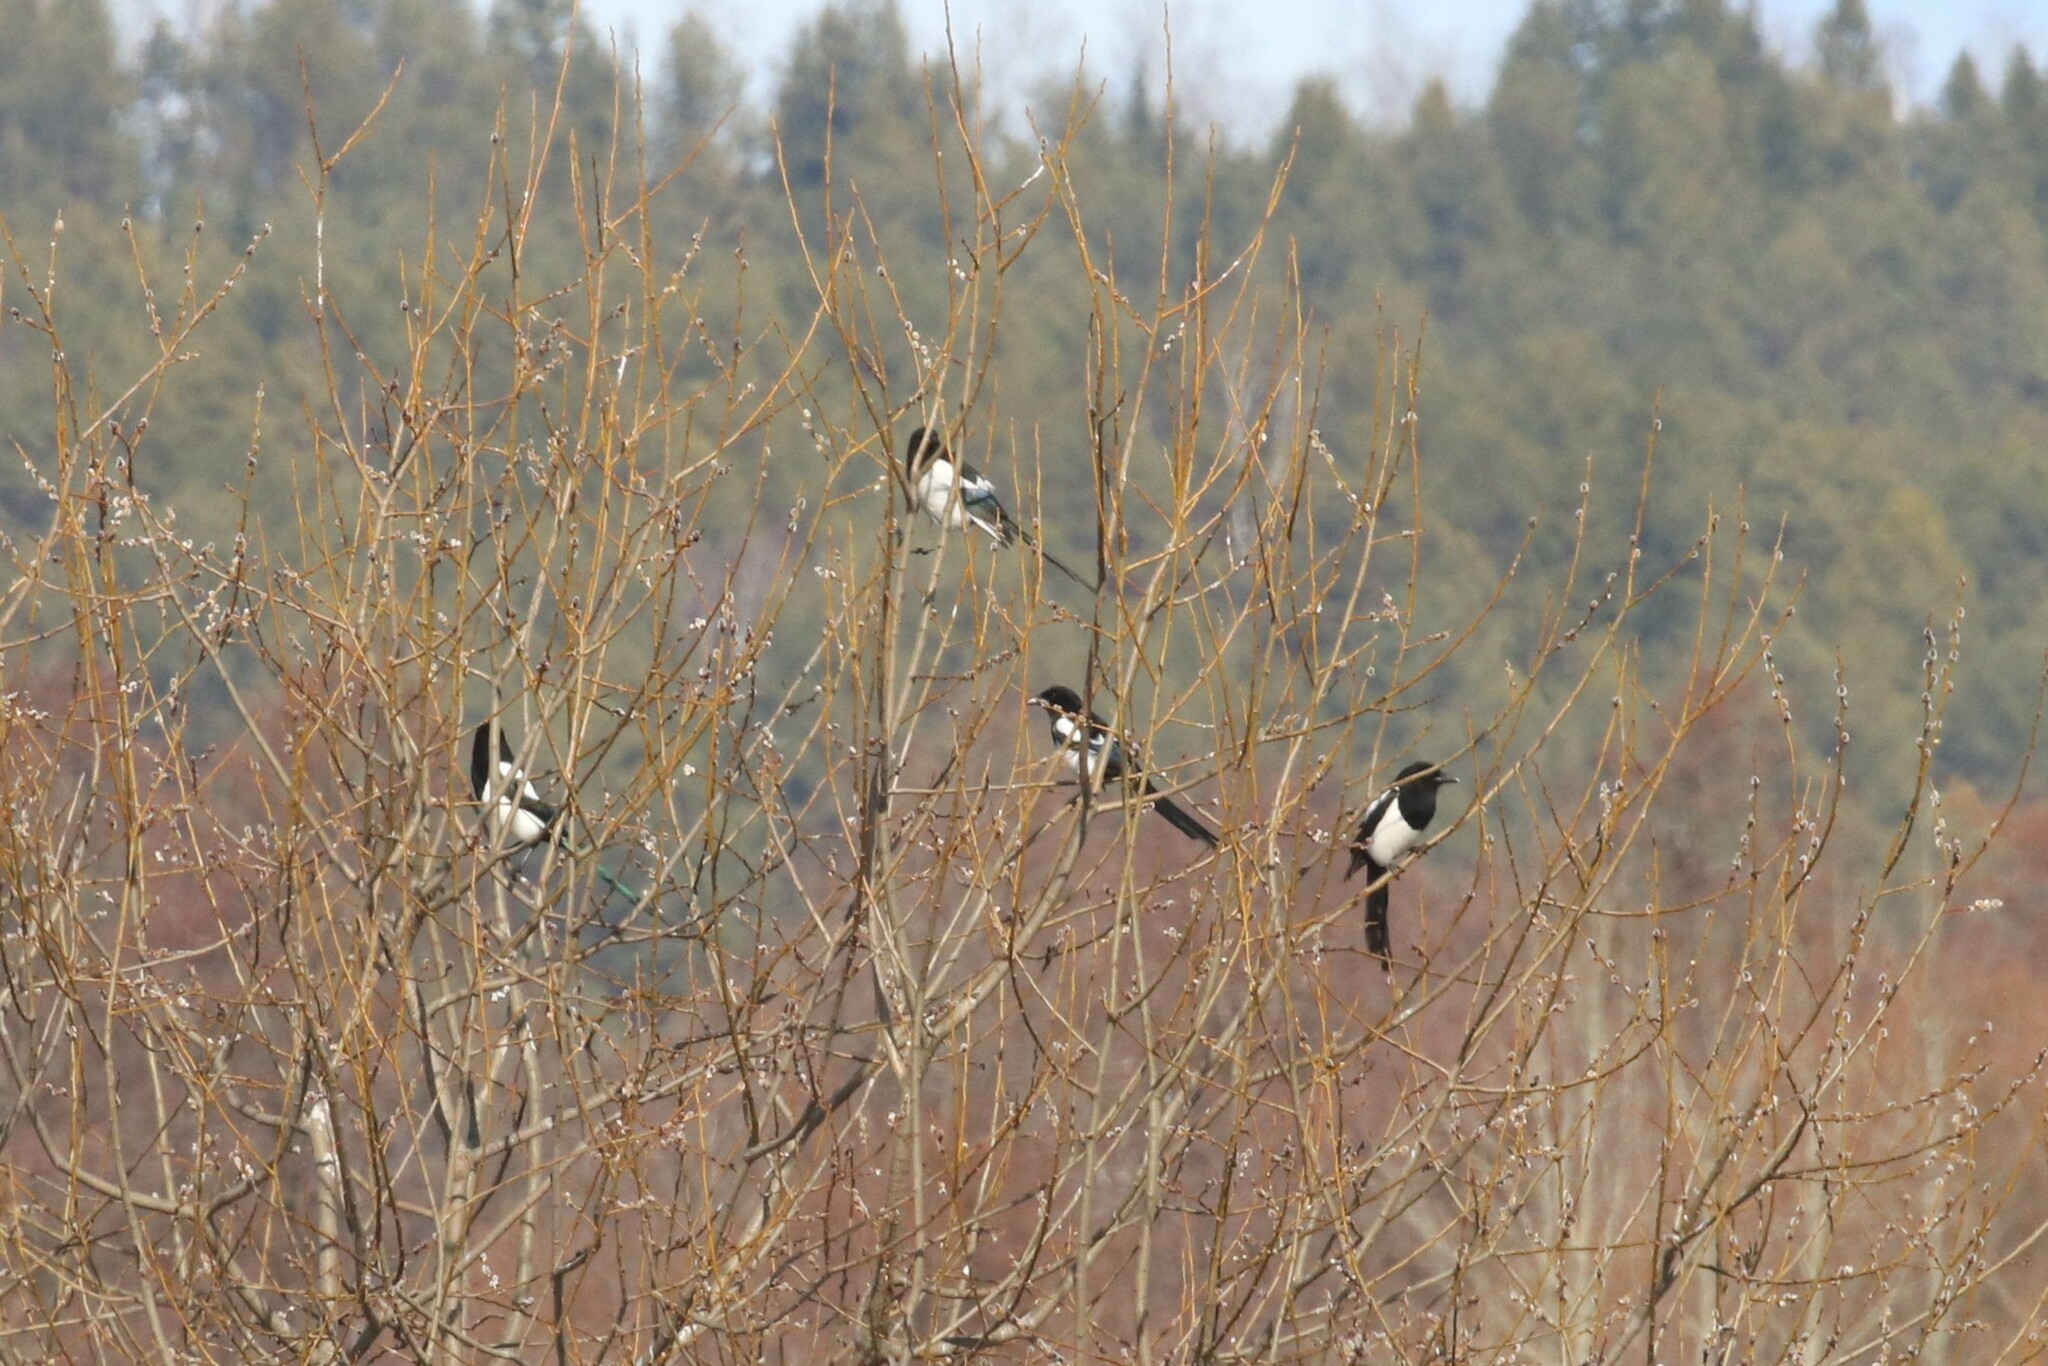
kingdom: Animalia
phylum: Chordata
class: Aves
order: Passeriformes
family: Corvidae
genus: Pica
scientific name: Pica pica
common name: Eurasian magpie
